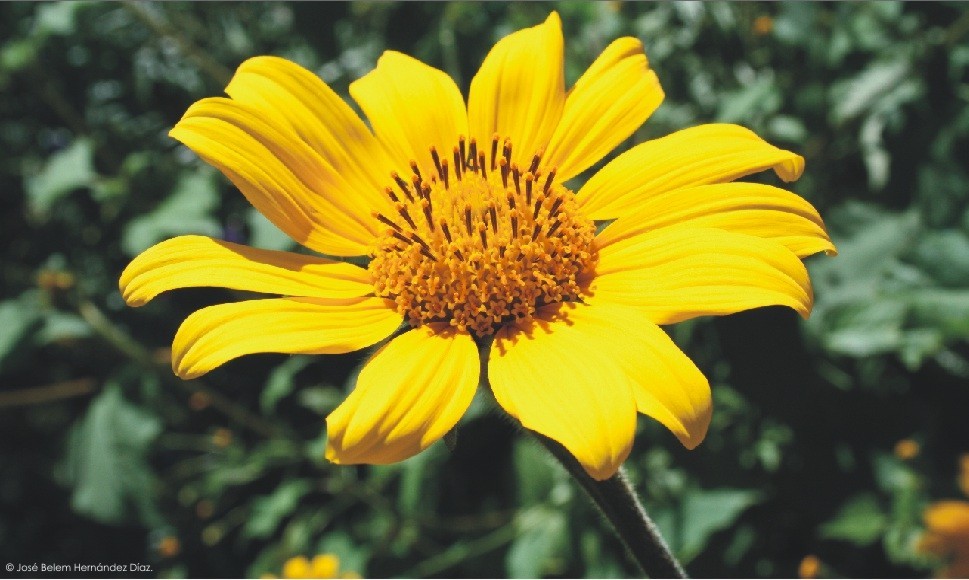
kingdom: Plantae
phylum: Tracheophyta
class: Magnoliopsida
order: Asterales
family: Asteraceae
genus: Tithonia
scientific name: Tithonia tubaeformis
